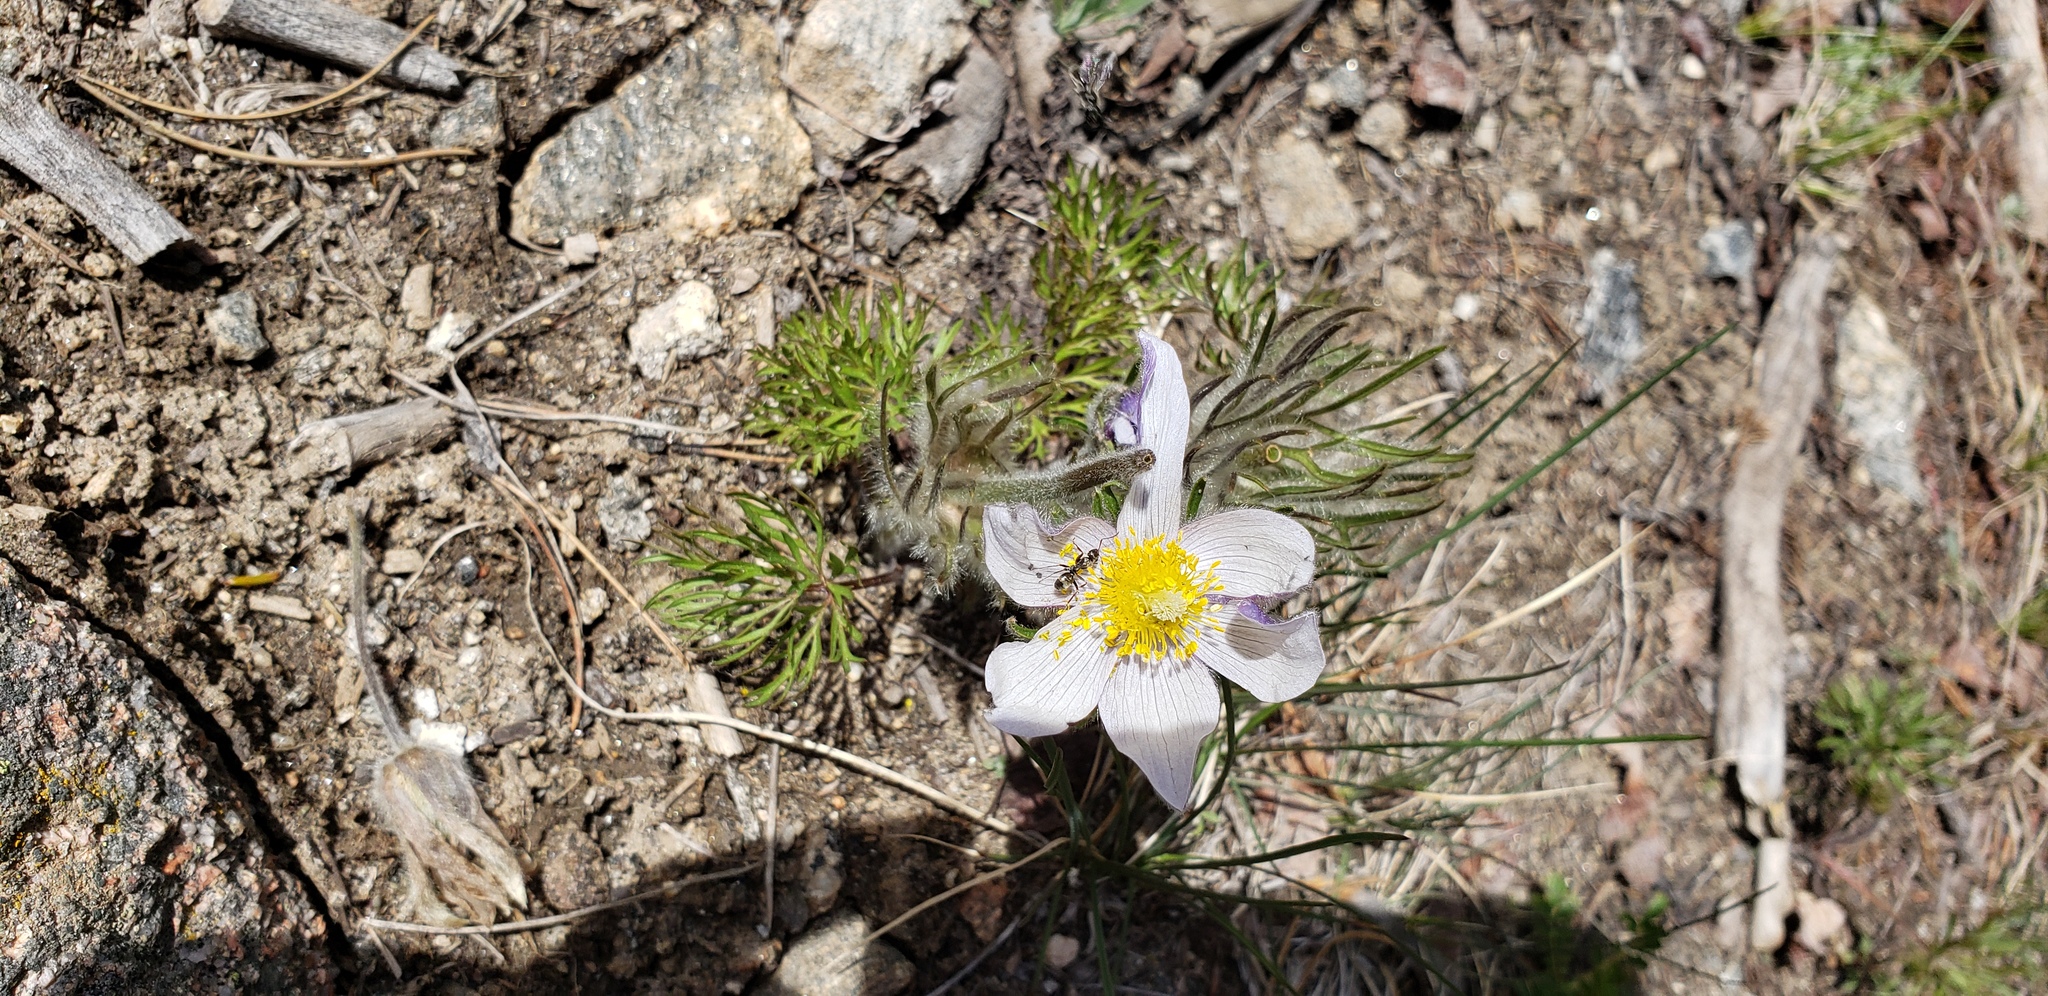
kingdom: Plantae
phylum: Tracheophyta
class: Magnoliopsida
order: Ranunculales
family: Ranunculaceae
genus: Pulsatilla
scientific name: Pulsatilla nuttalliana
